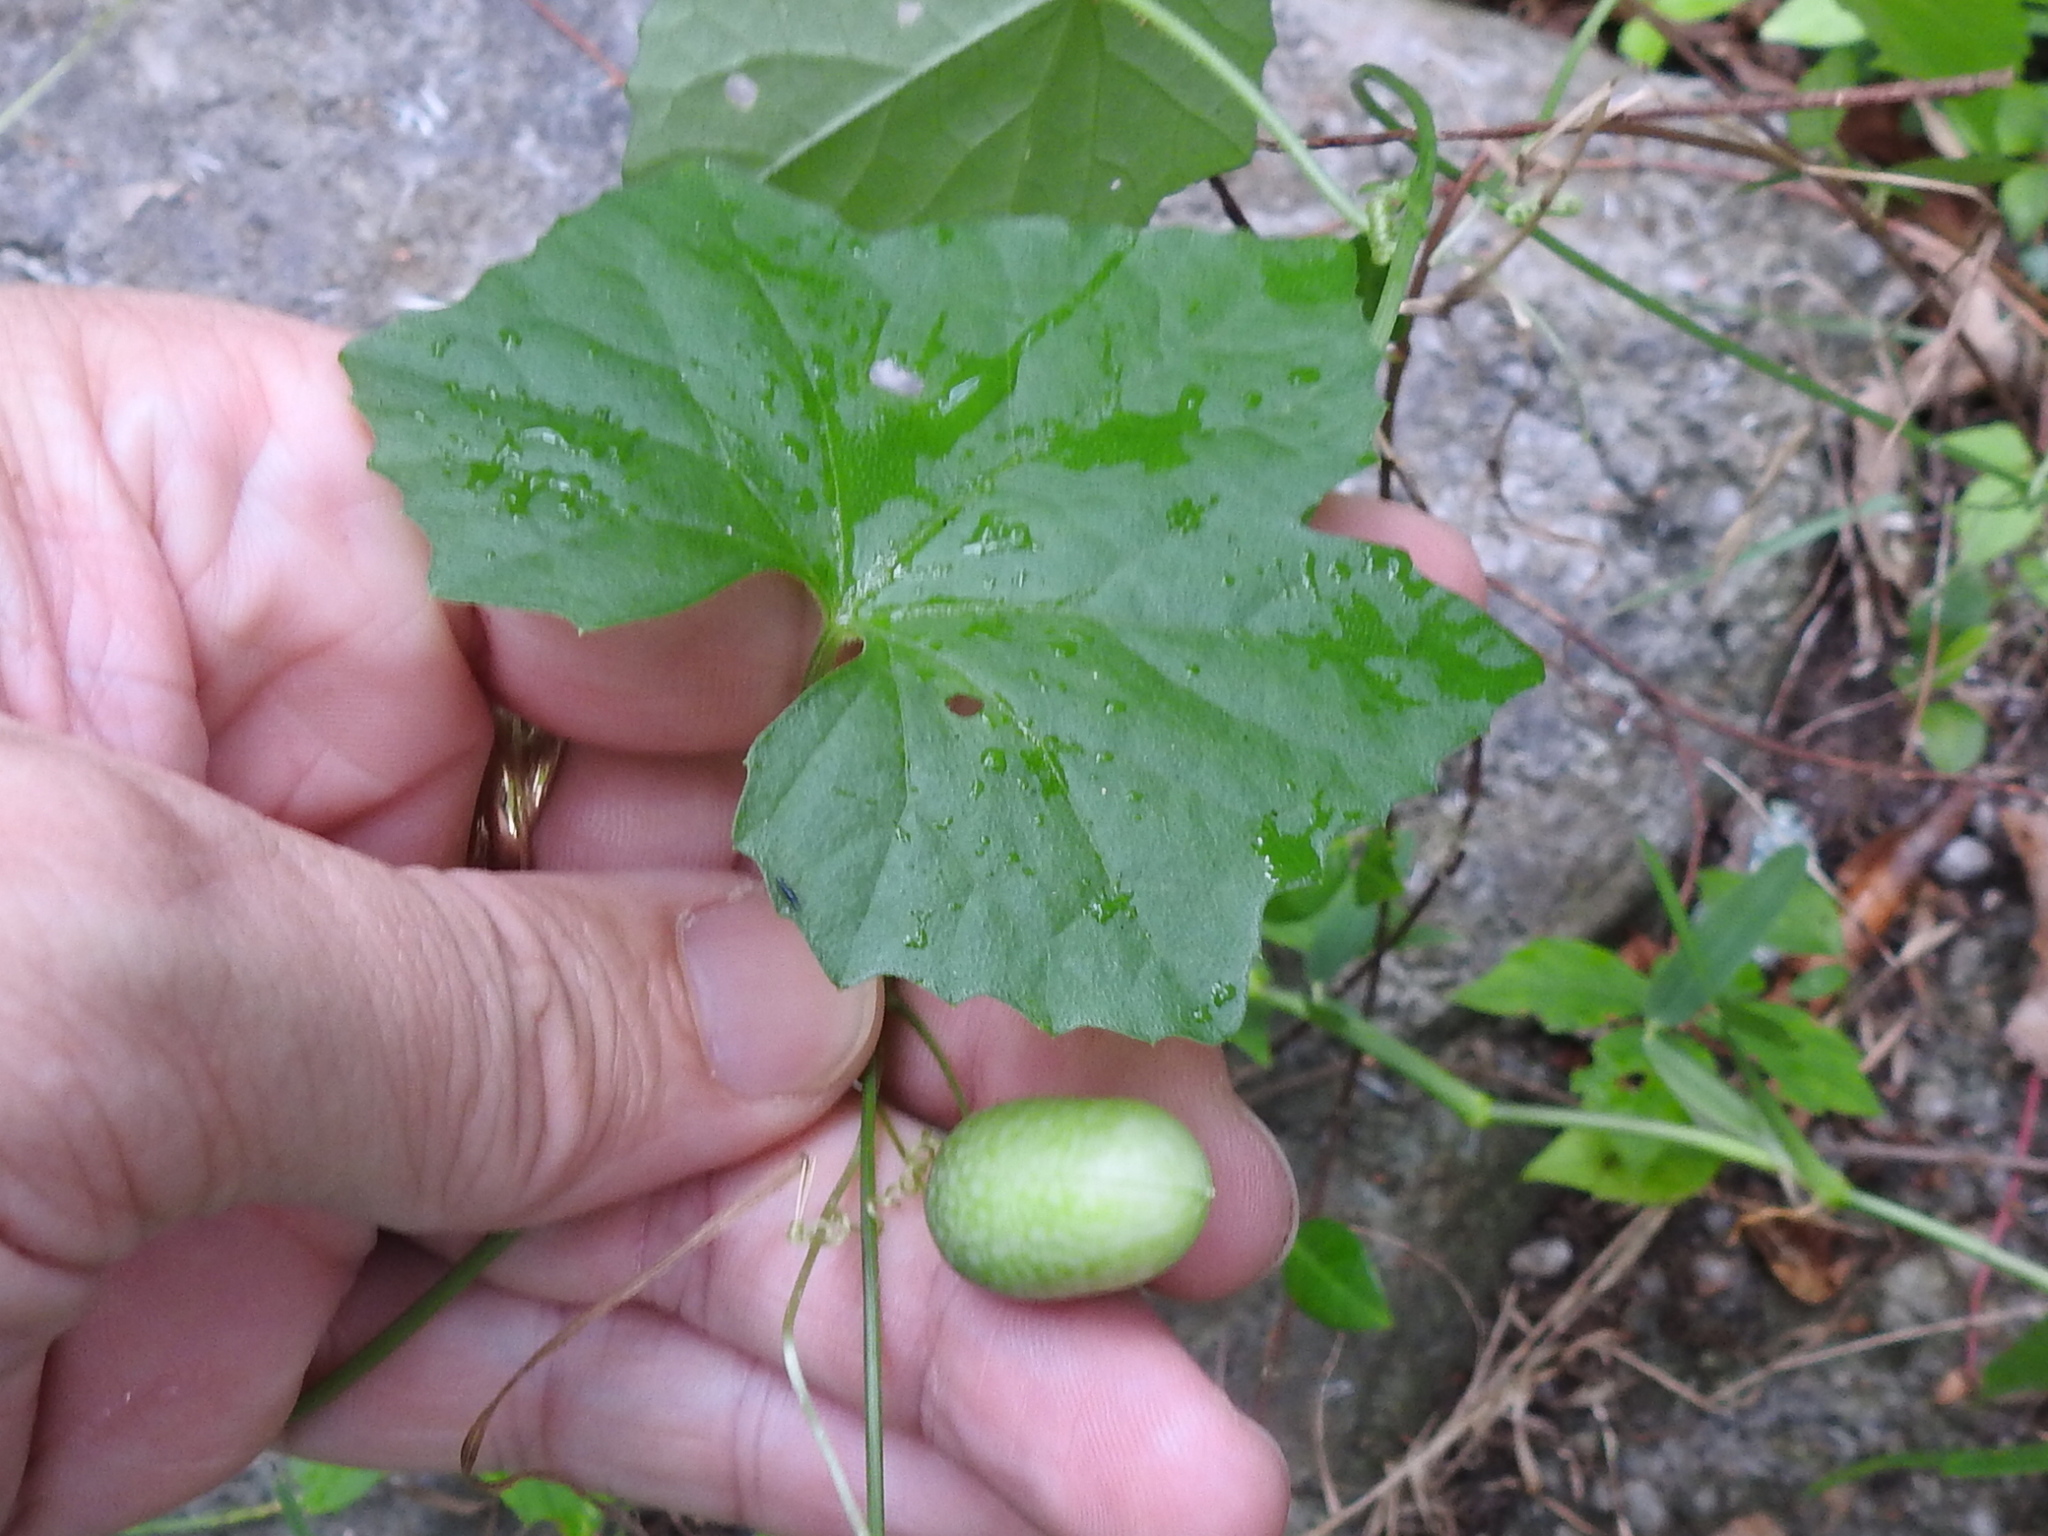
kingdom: Plantae
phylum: Tracheophyta
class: Magnoliopsida
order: Cucurbitales
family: Cucurbitaceae
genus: Melothria
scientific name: Melothria pendula
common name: Creeping-cucumber
